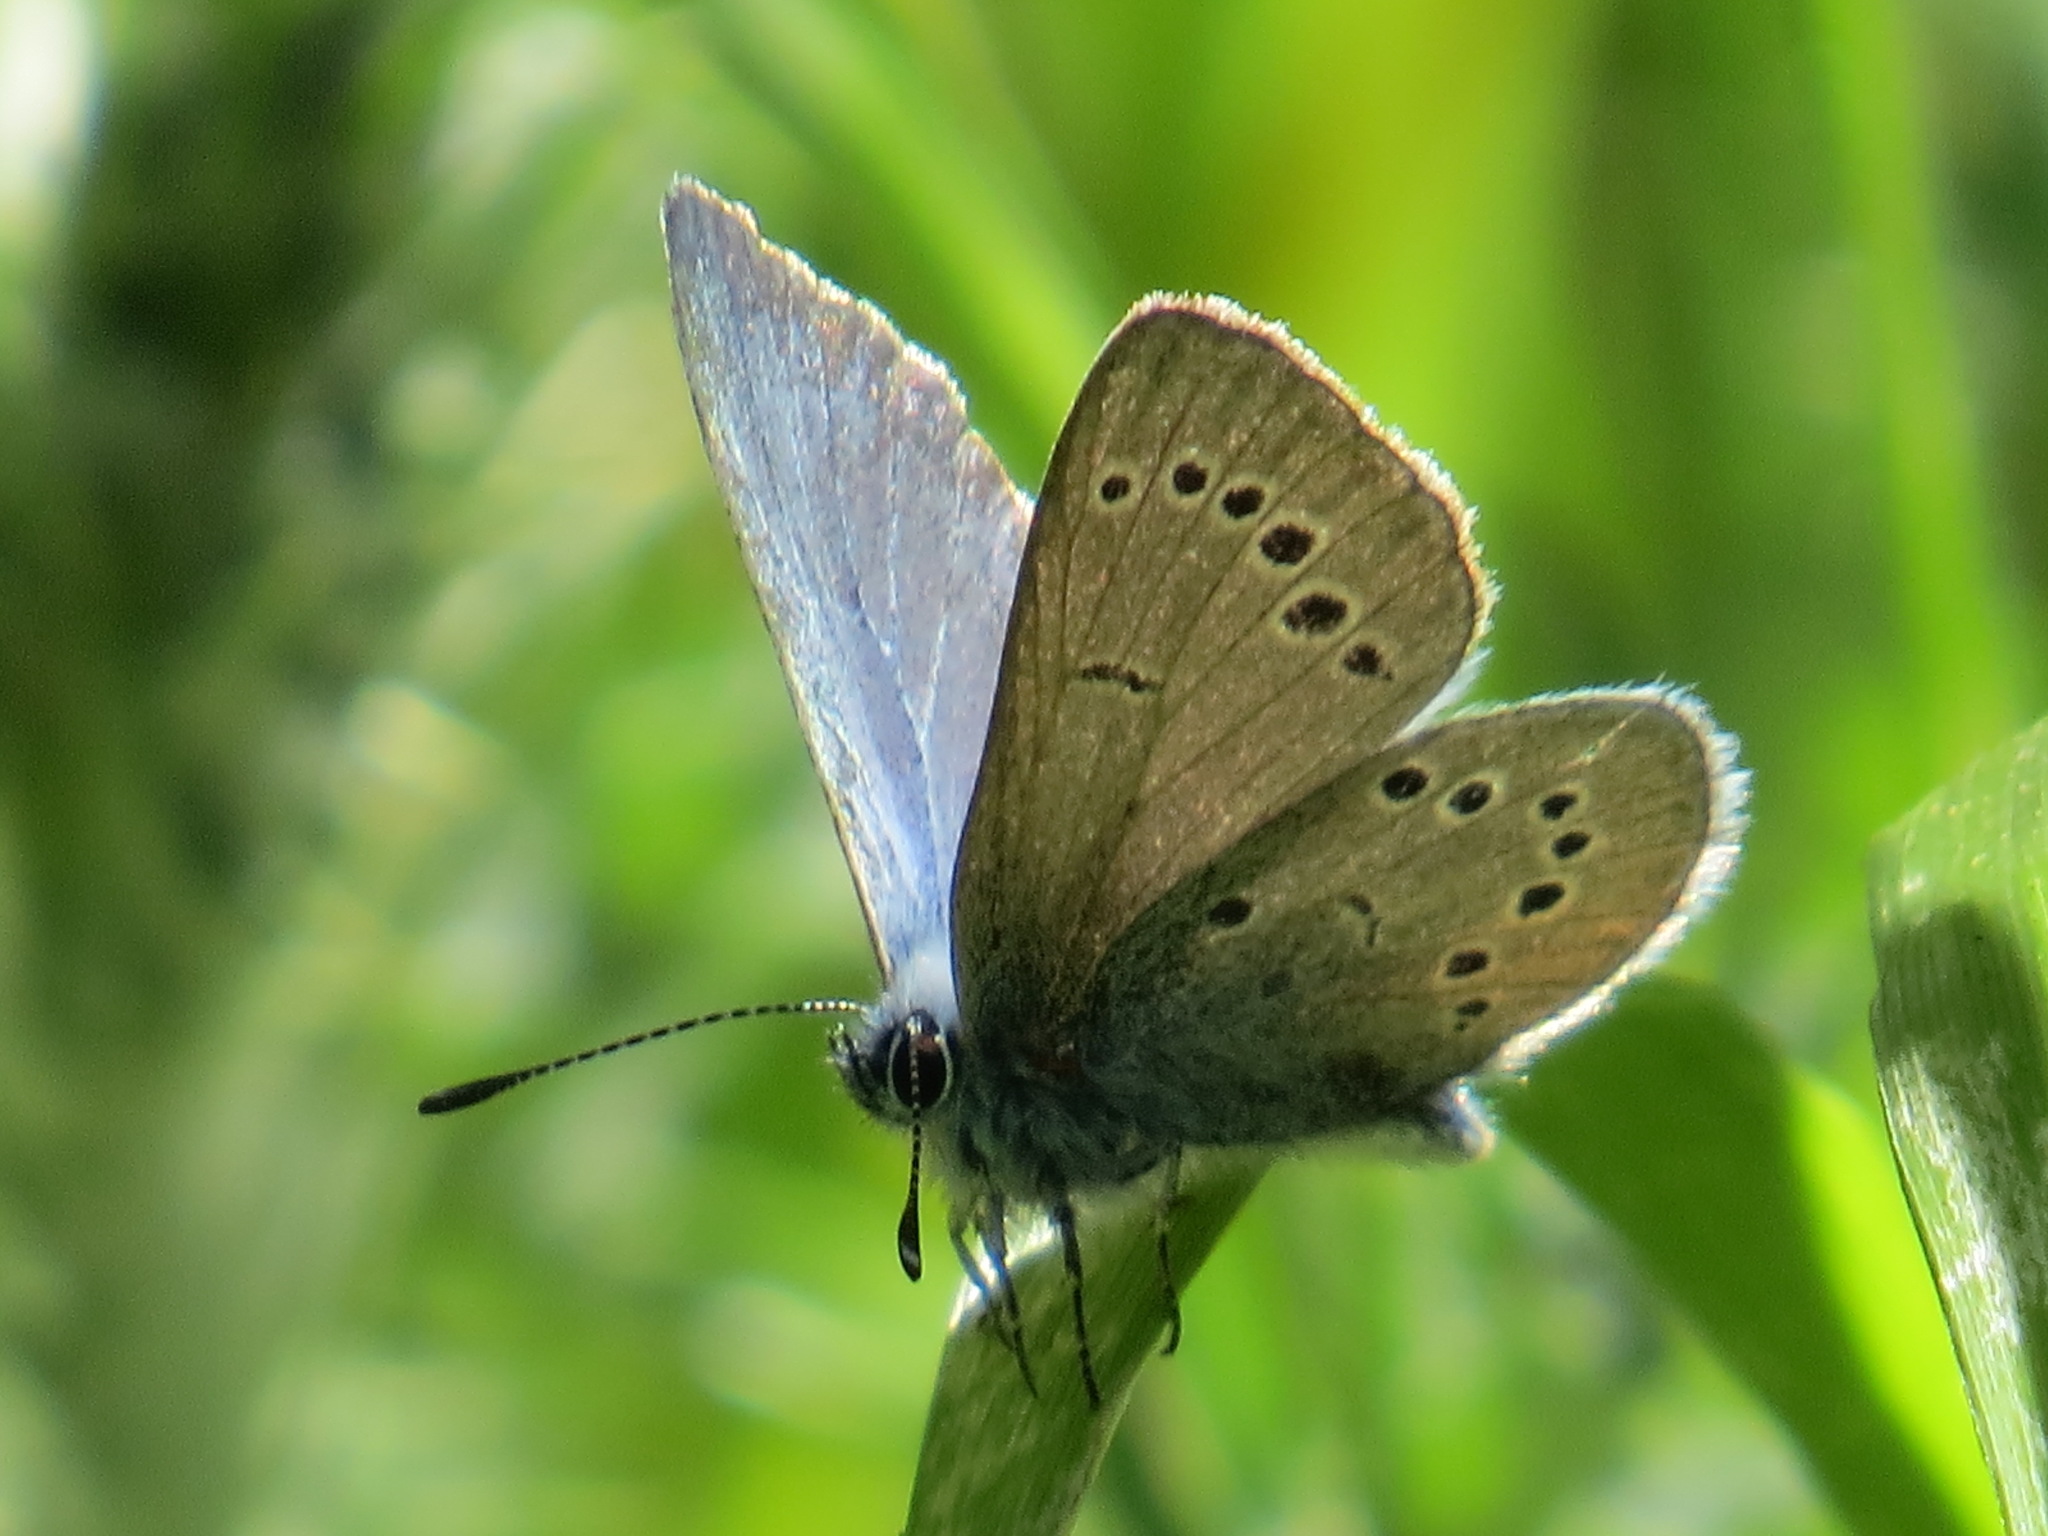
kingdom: Animalia
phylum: Arthropoda
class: Insecta
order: Lepidoptera
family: Lycaenidae
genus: Glaucopsyche
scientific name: Glaucopsyche lygdamus
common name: Silvery blue
